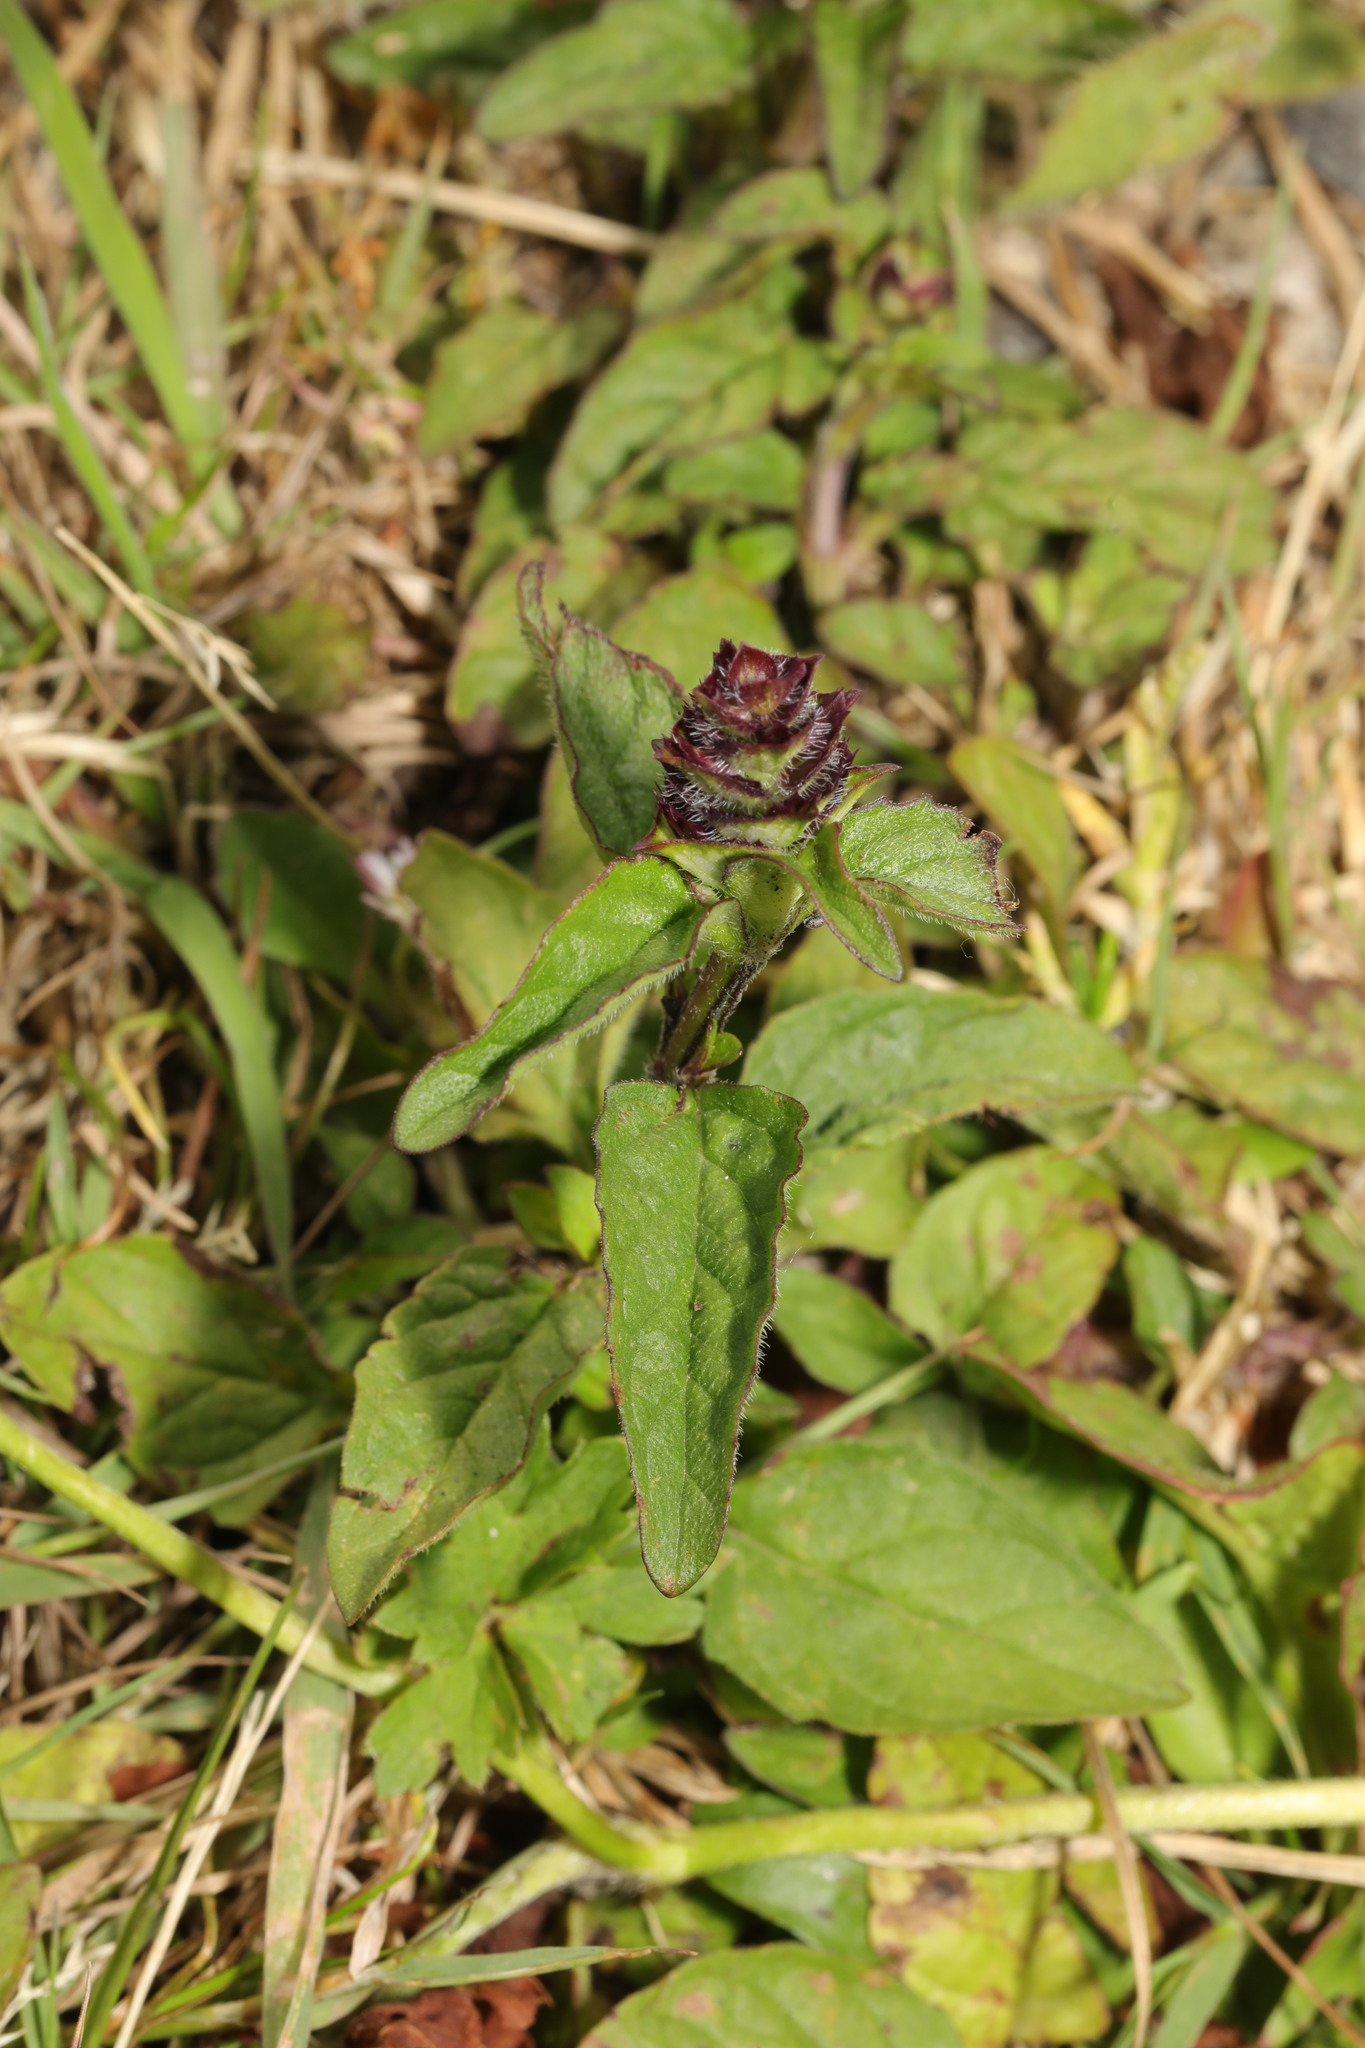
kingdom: Plantae
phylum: Tracheophyta
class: Magnoliopsida
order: Lamiales
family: Lamiaceae
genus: Prunella
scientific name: Prunella vulgaris
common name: Heal-all
